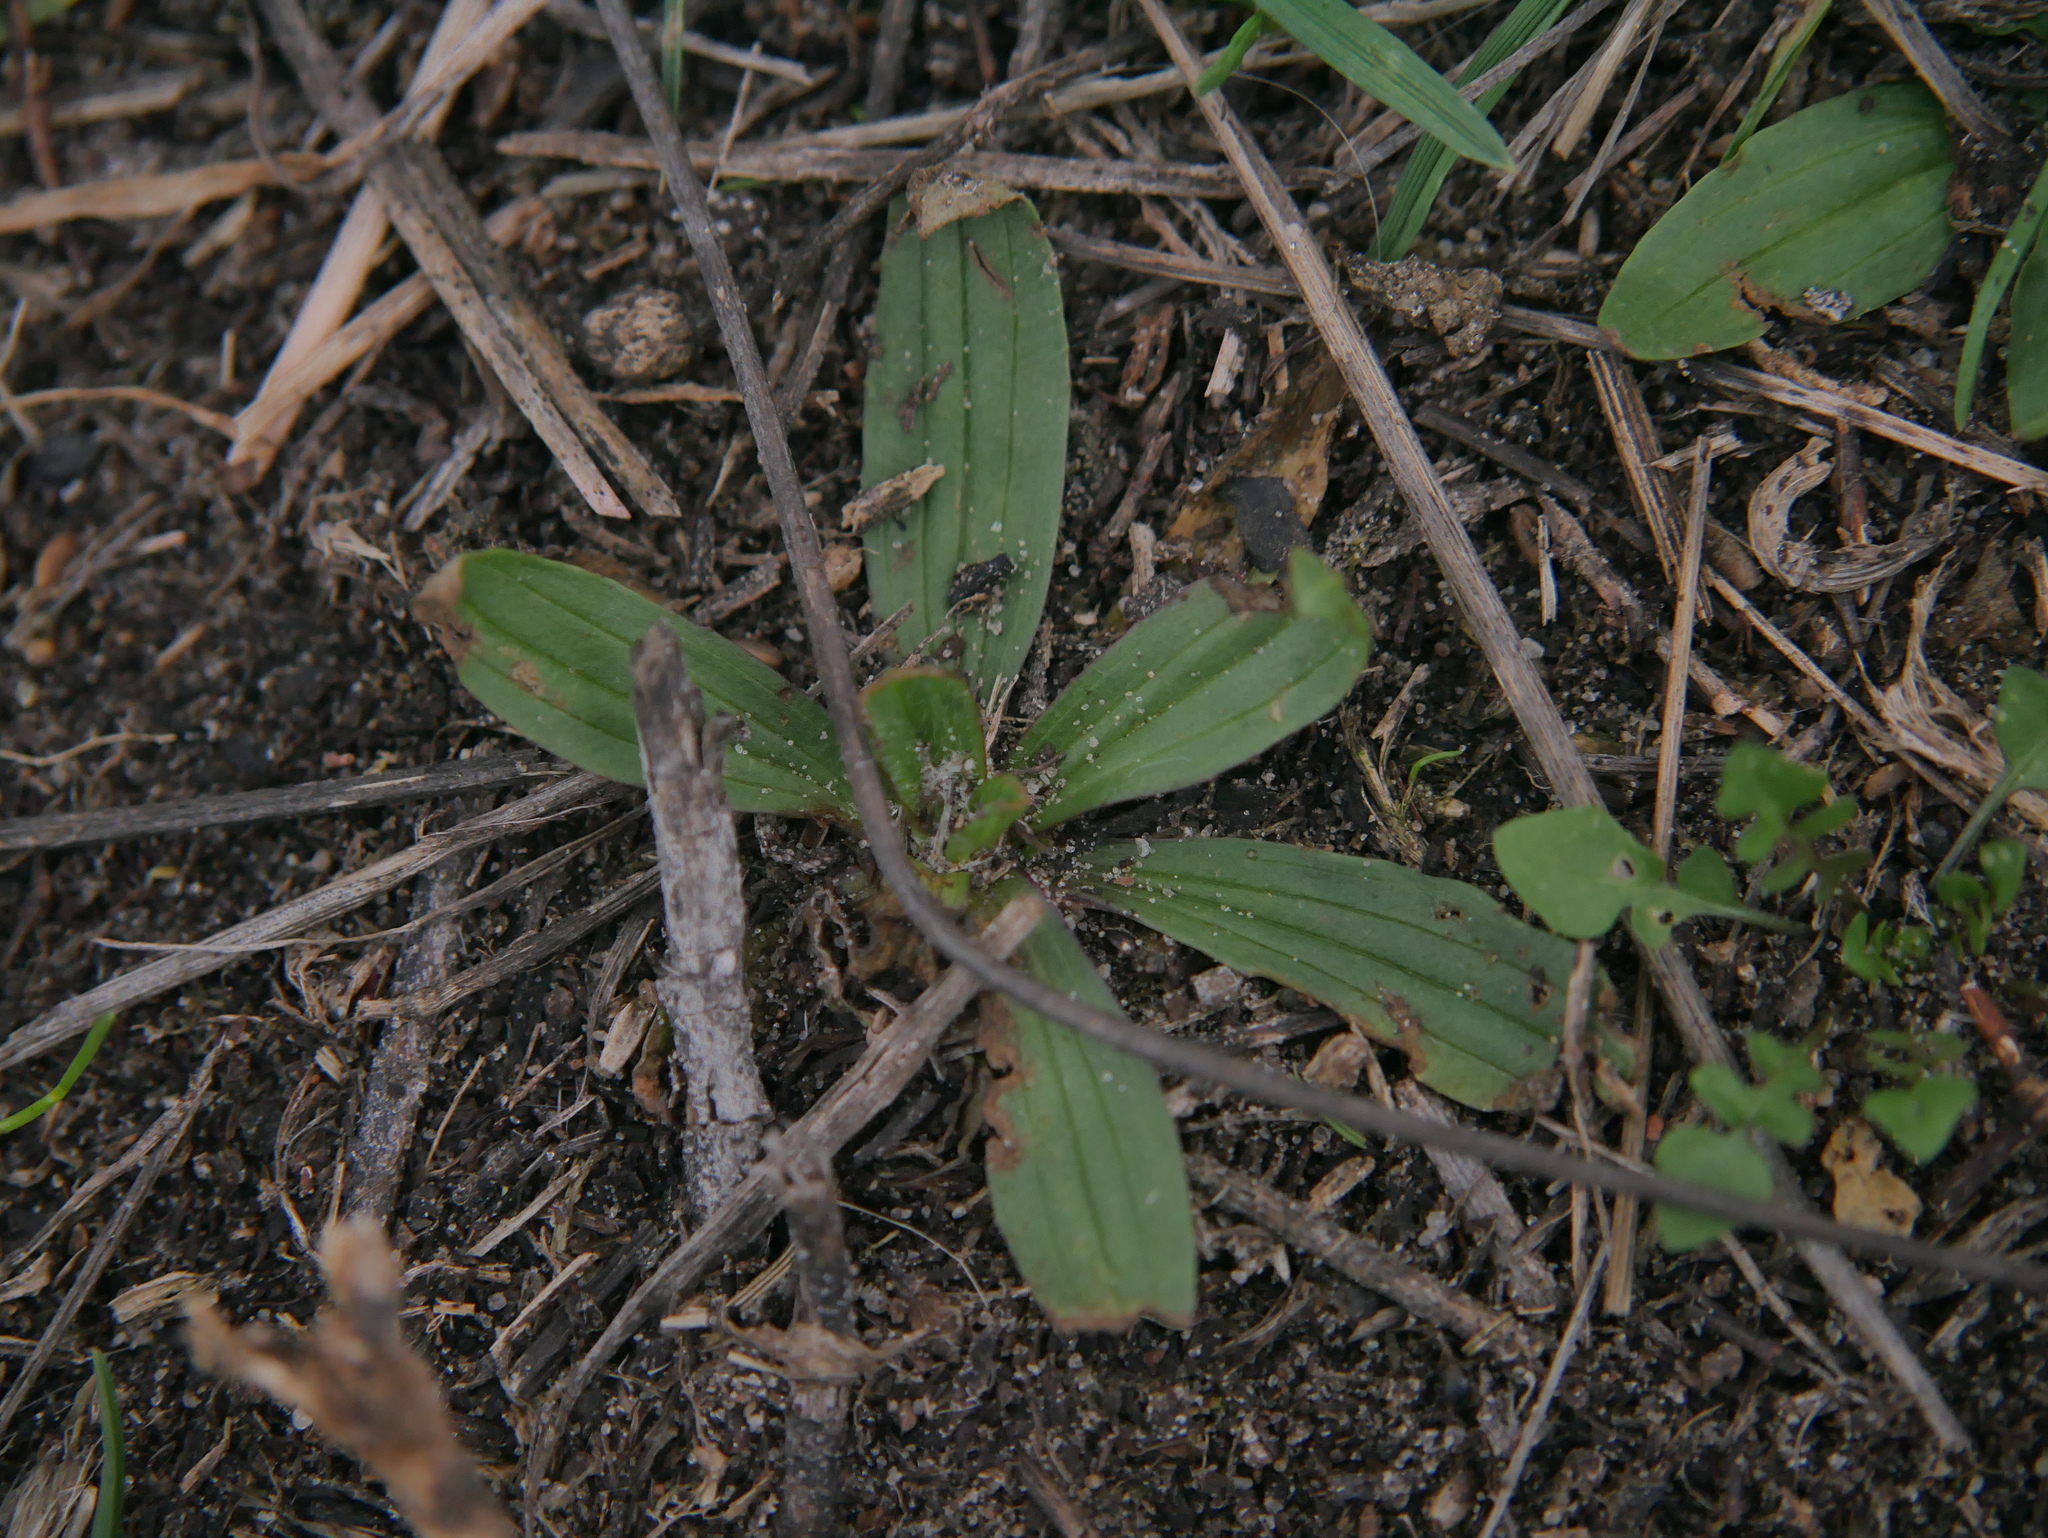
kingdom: Plantae
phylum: Tracheophyta
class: Magnoliopsida
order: Lamiales
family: Plantaginaceae
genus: Plantago
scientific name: Plantago lanceolata
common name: Ribwort plantain
